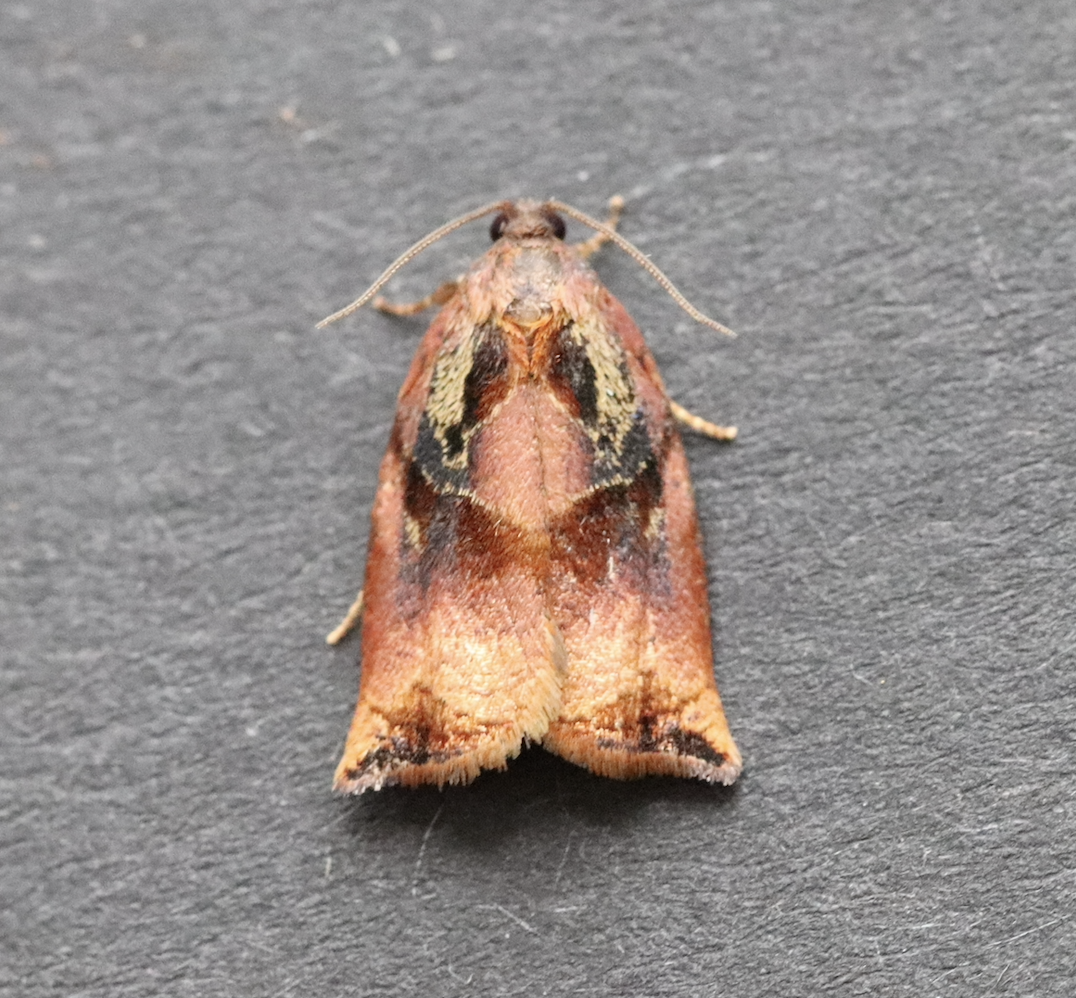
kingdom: Animalia
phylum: Arthropoda
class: Insecta
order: Lepidoptera
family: Tortricidae
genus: Archips
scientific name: Archips podana
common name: Large fruit-tree tortrix
